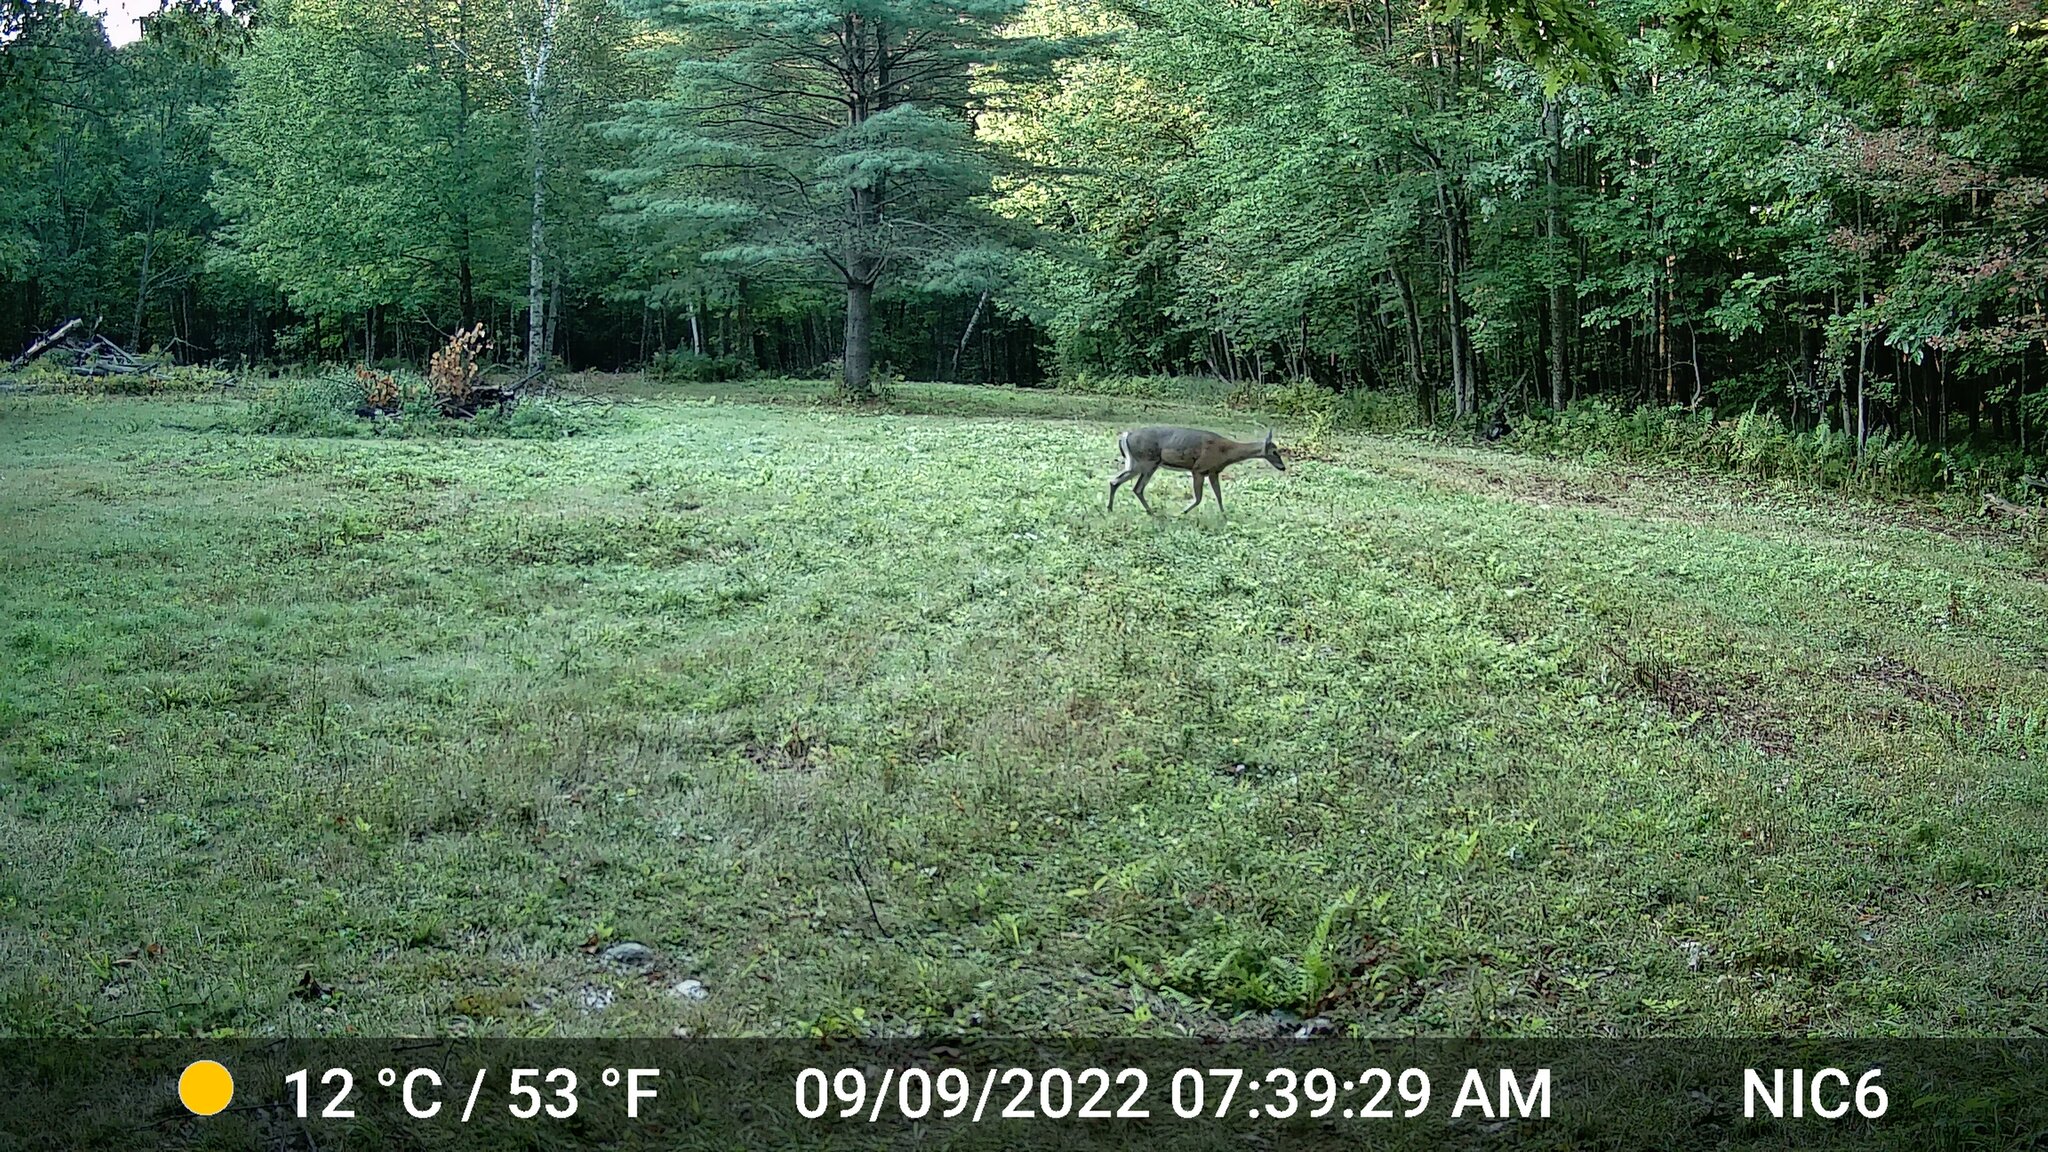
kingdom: Animalia
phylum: Chordata
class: Mammalia
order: Artiodactyla
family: Cervidae
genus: Odocoileus
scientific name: Odocoileus virginianus
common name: White-tailed deer
